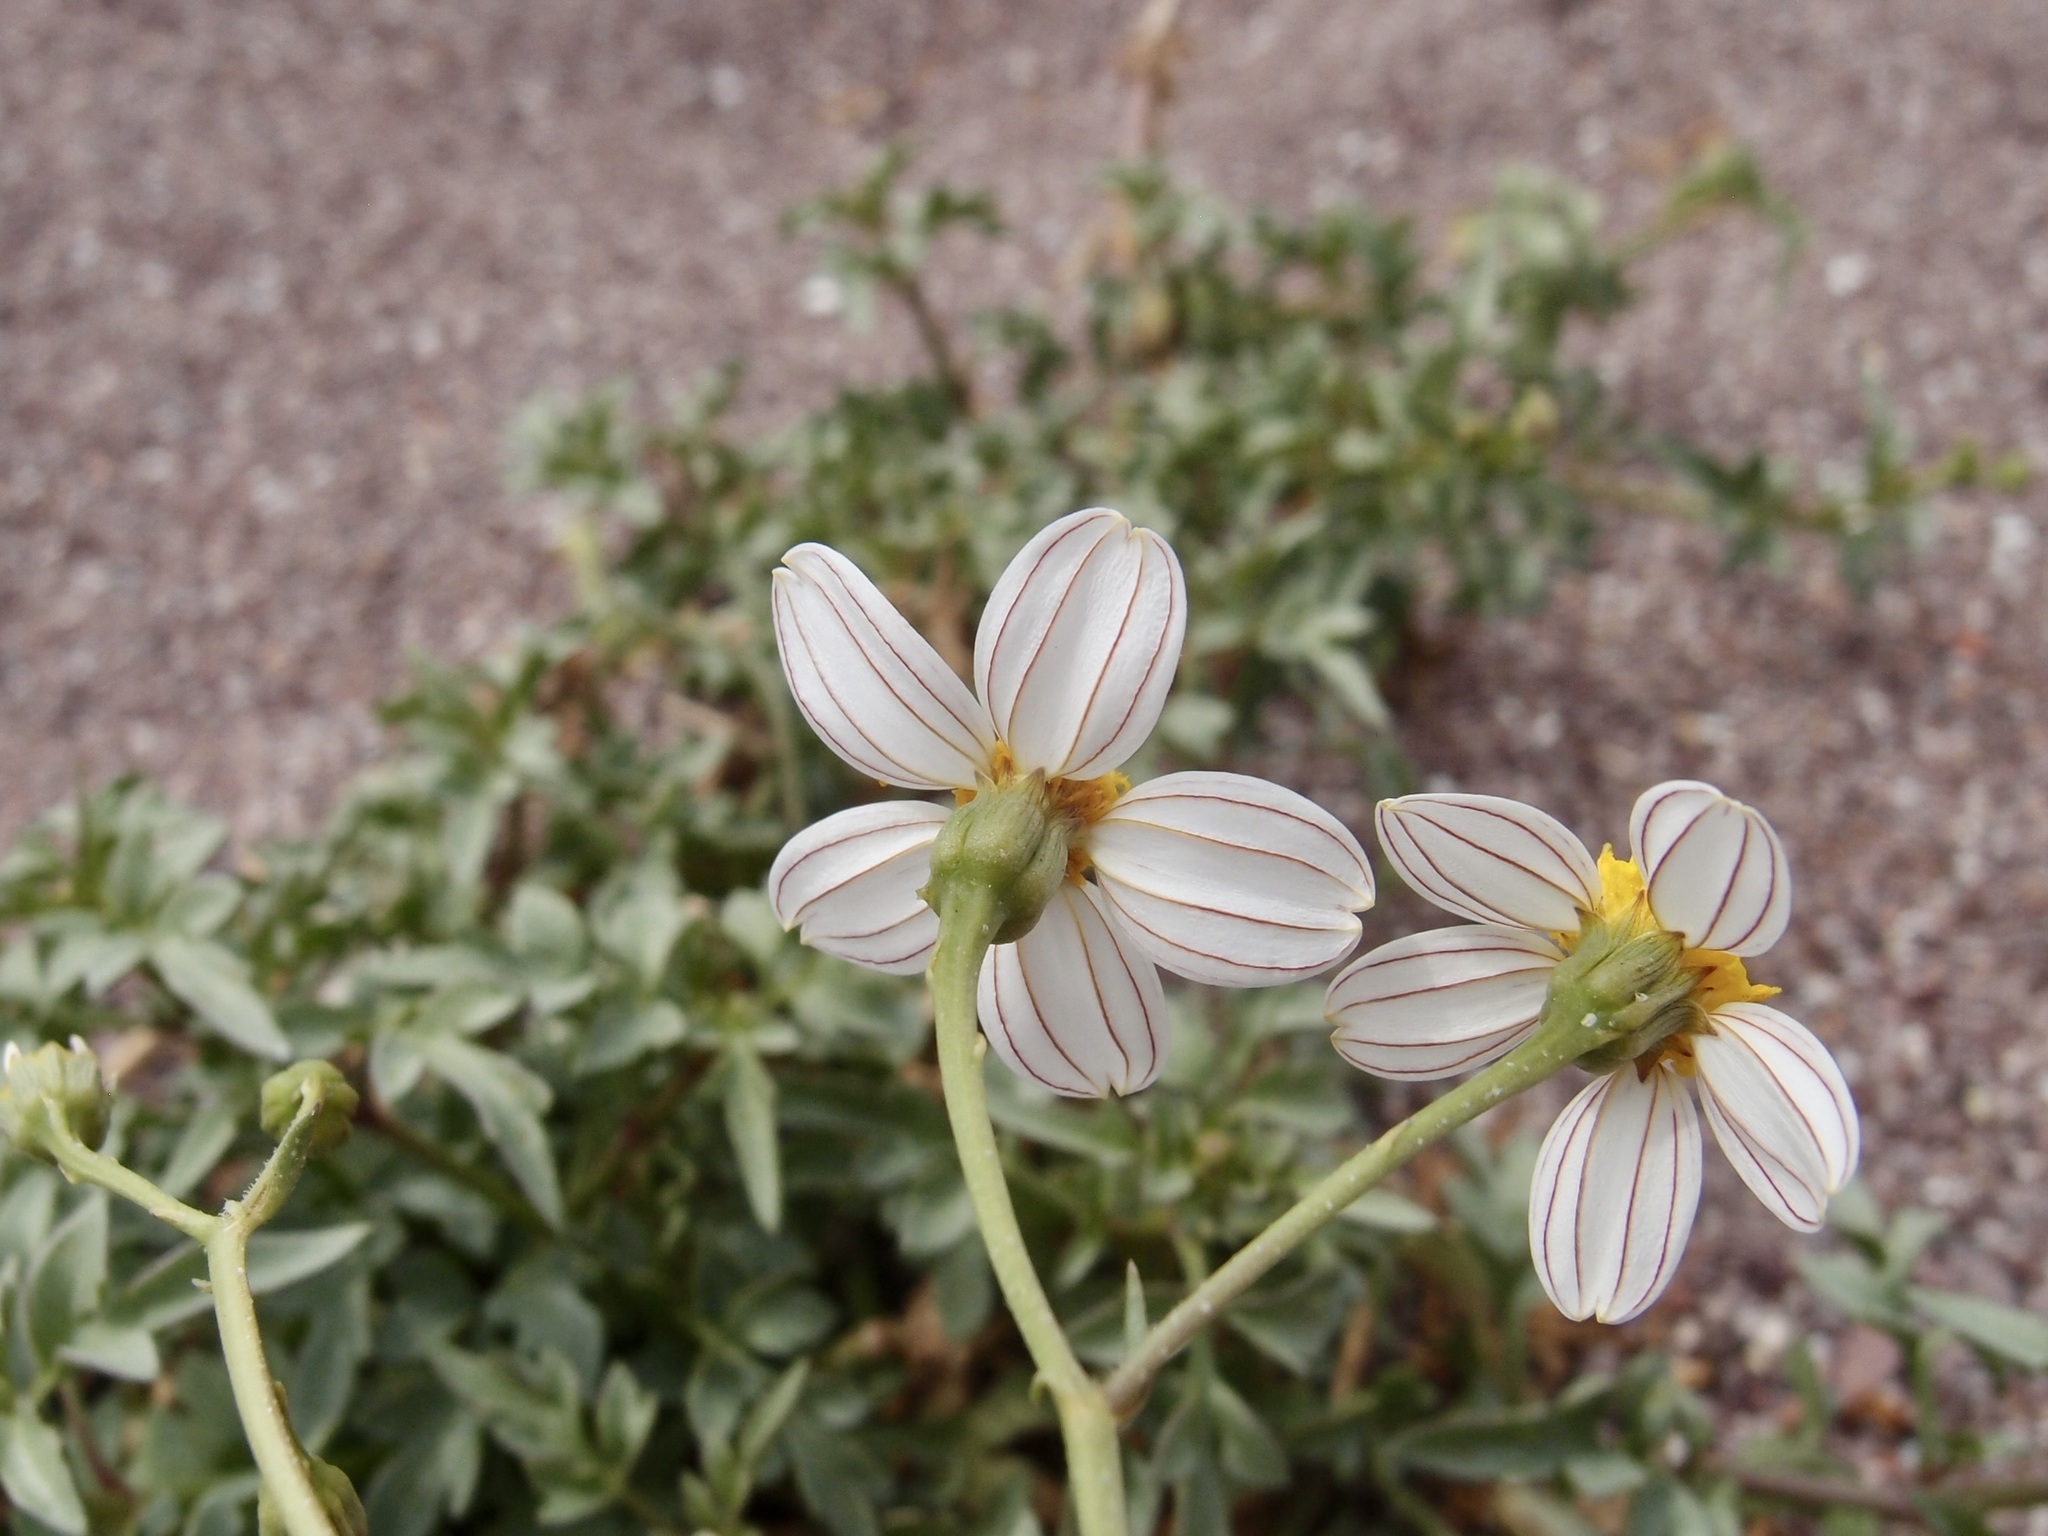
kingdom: Plantae
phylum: Tracheophyta
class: Magnoliopsida
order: Asterales
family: Asteraceae
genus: Coreocarpus
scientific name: Coreocarpus sonoranus
